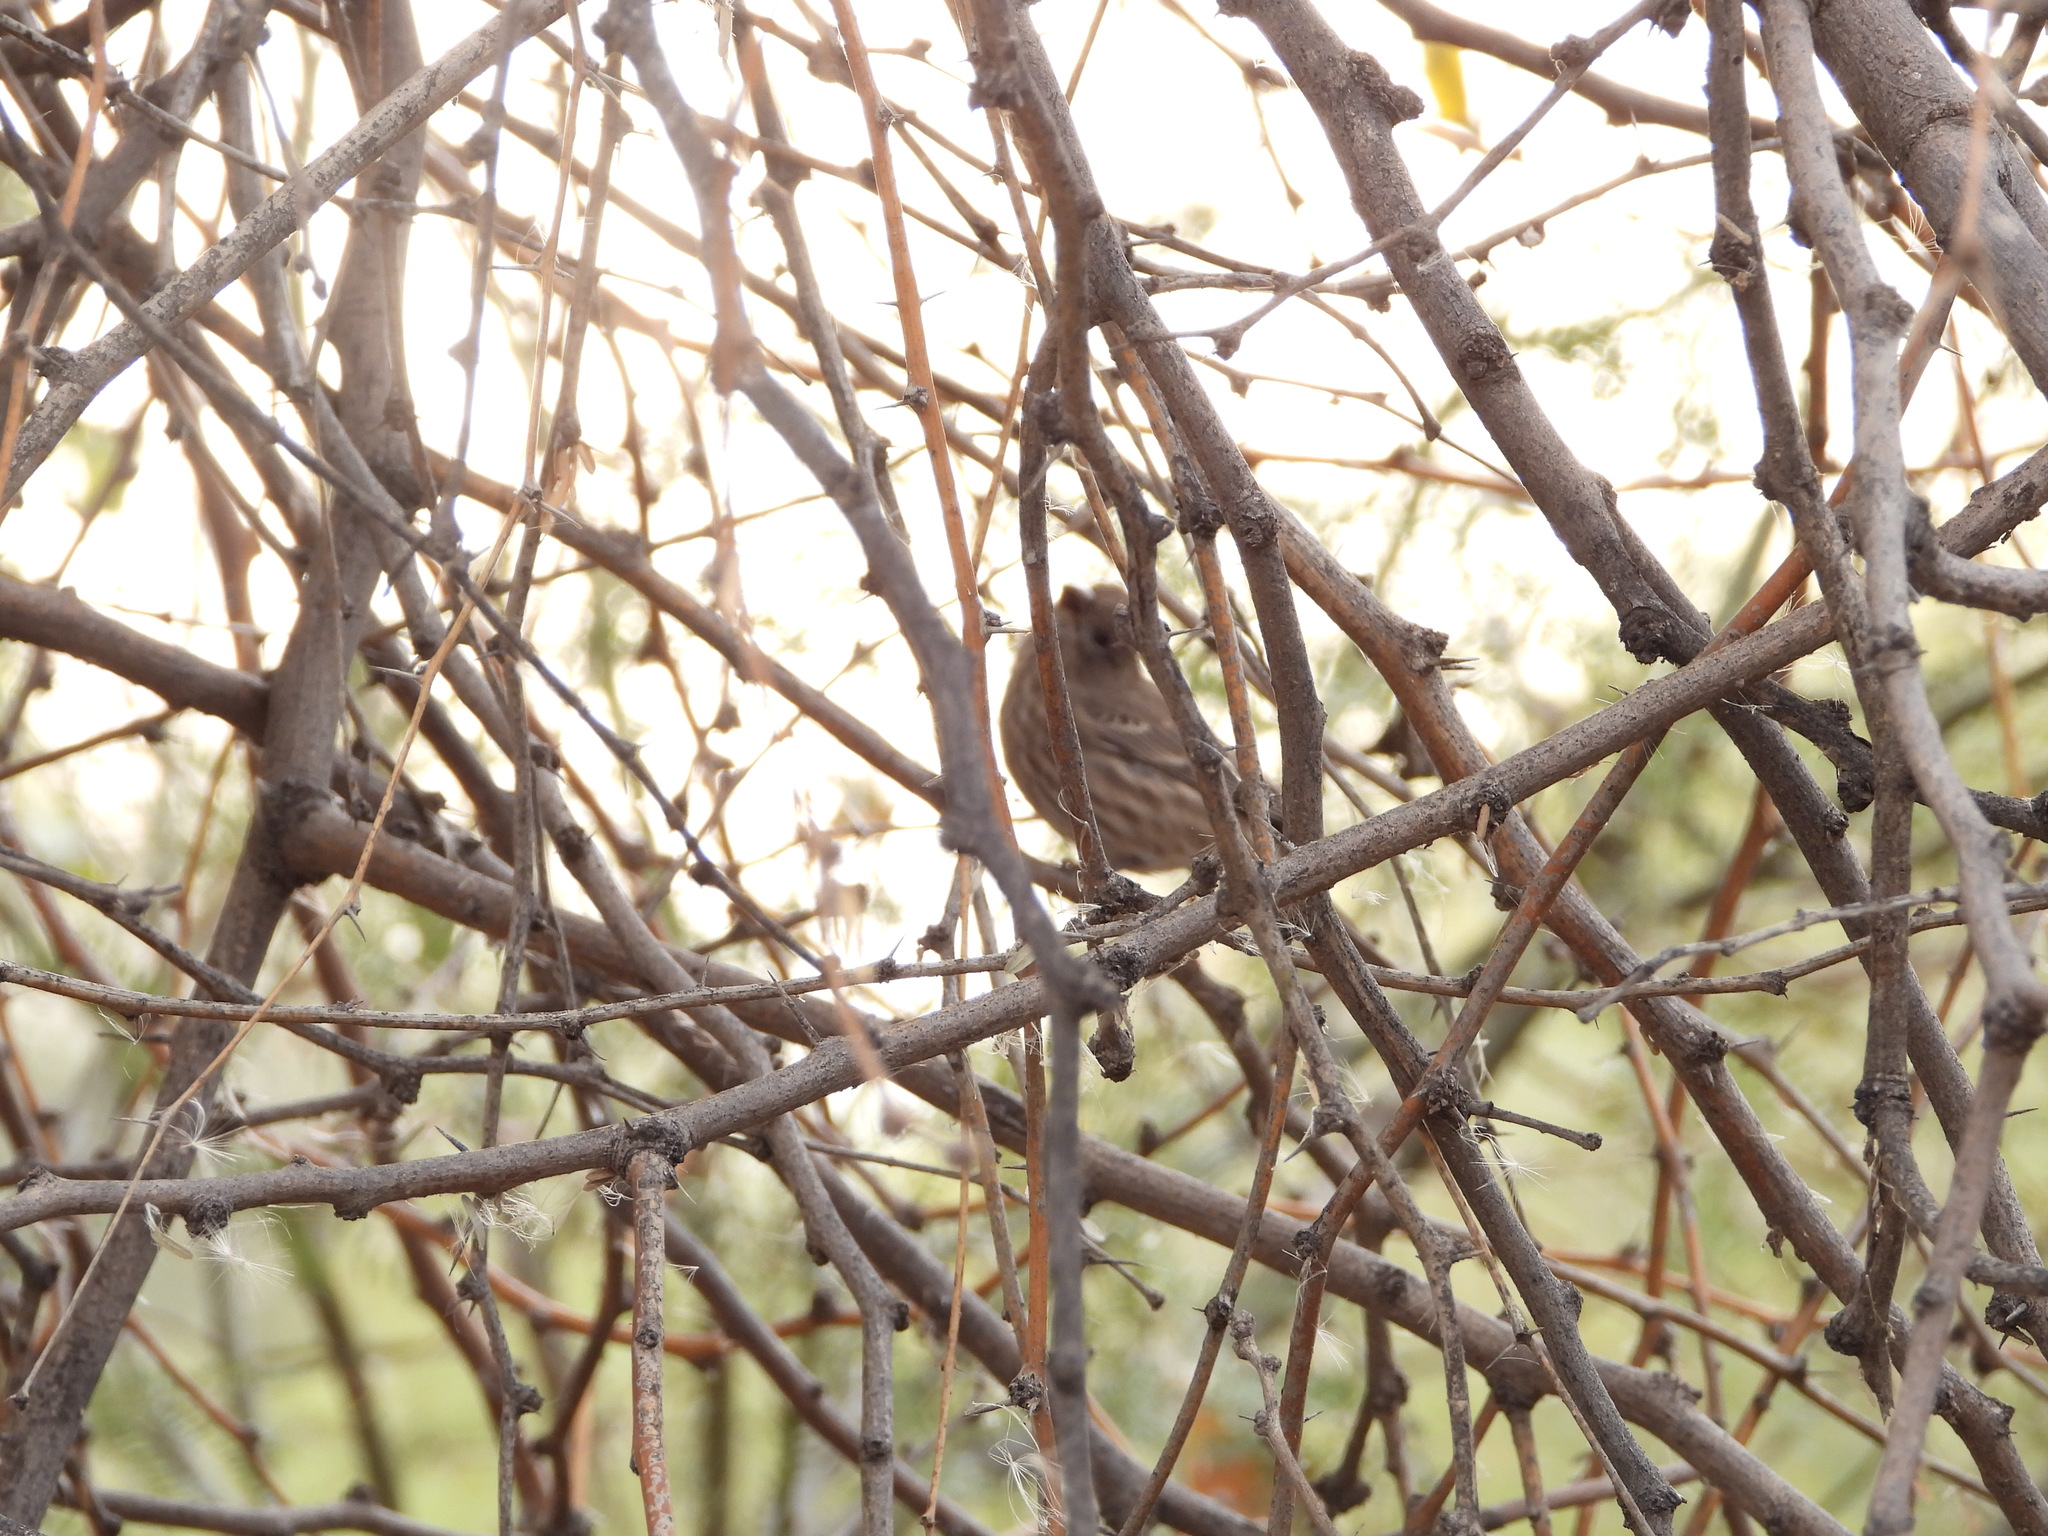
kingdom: Animalia
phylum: Chordata
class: Aves
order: Passeriformes
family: Fringillidae
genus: Haemorhous
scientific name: Haemorhous mexicanus
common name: House finch
